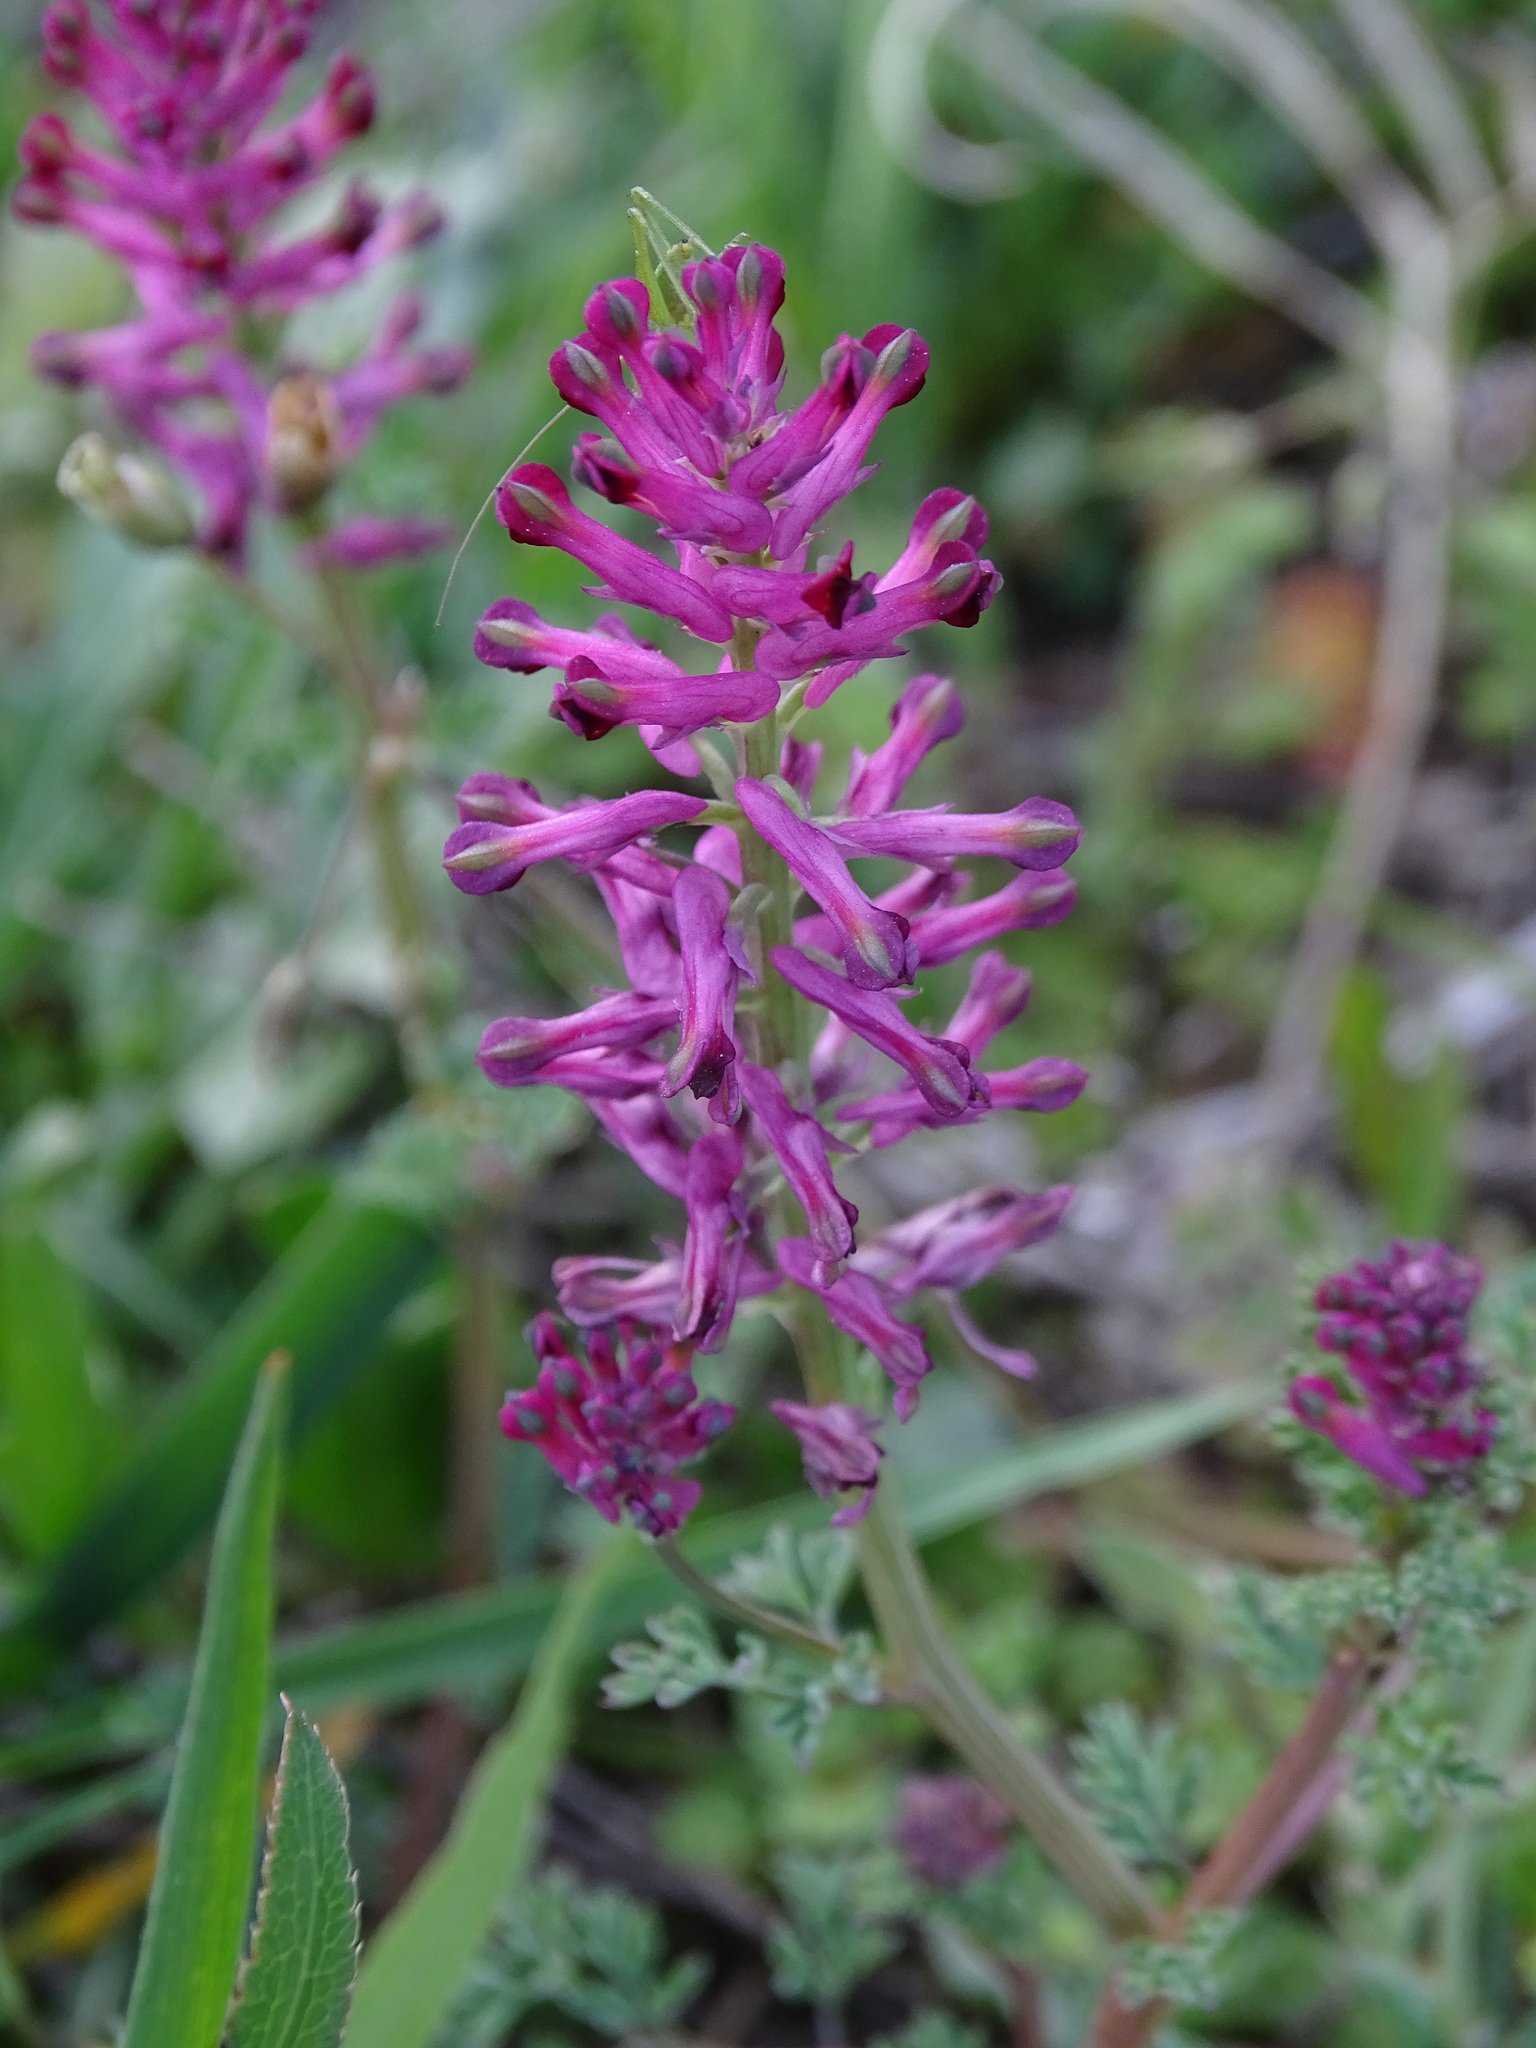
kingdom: Plantae
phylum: Tracheophyta
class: Magnoliopsida
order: Ranunculales
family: Papaveraceae
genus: Fumaria
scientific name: Fumaria officinalis
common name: Common fumitory
